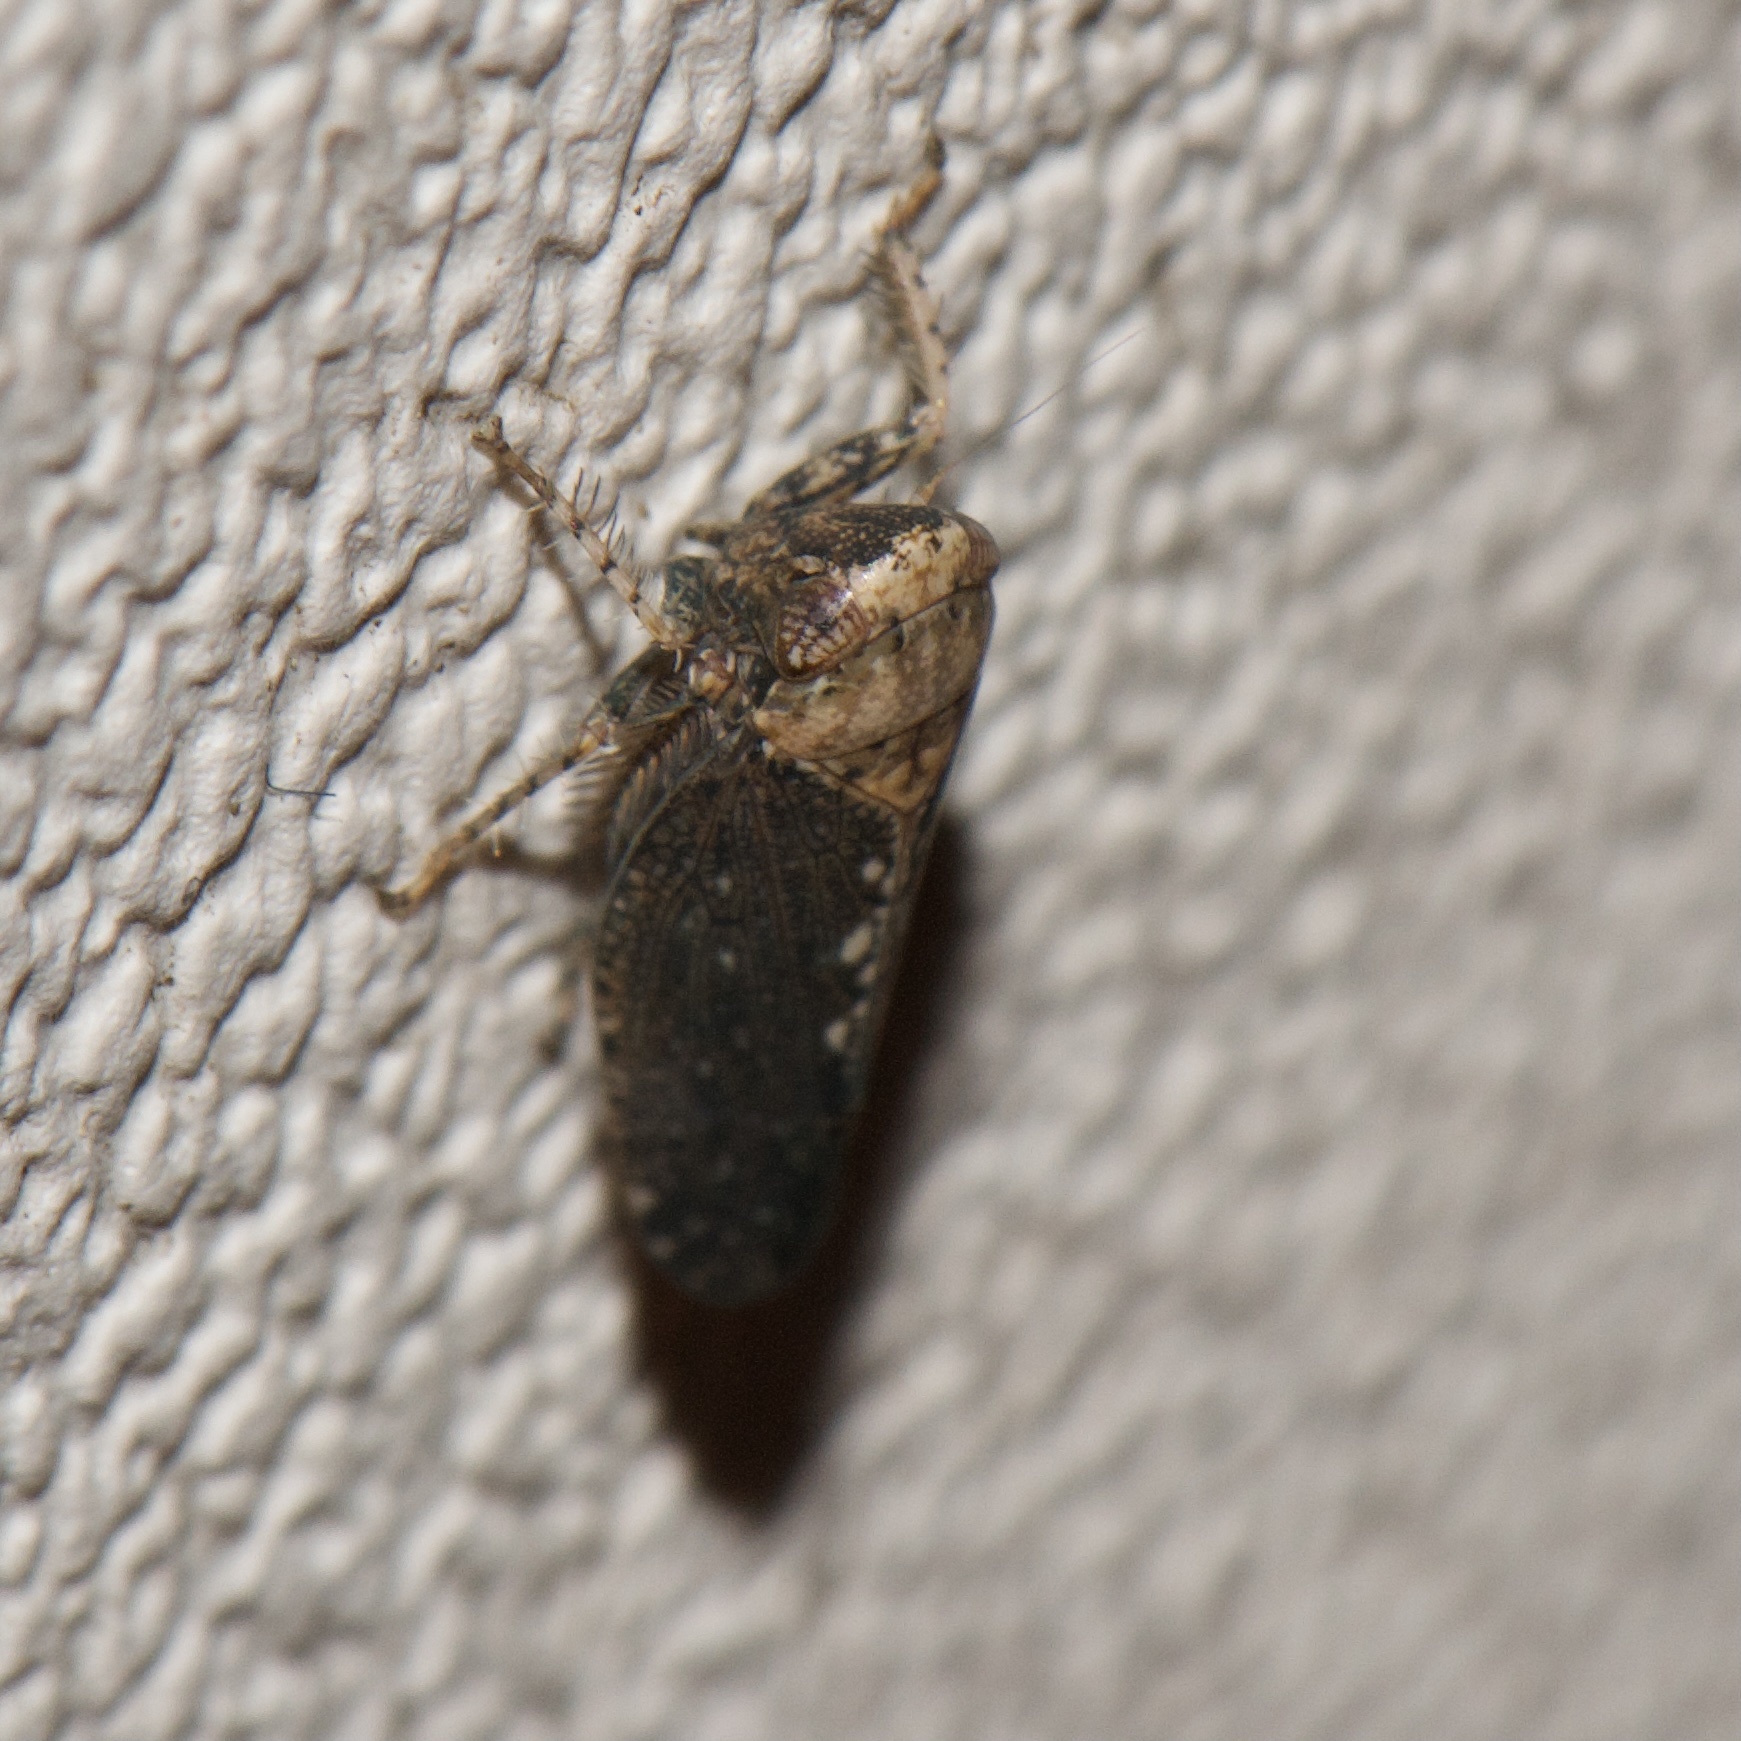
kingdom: Animalia
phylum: Arthropoda
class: Insecta
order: Hemiptera
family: Cicadellidae
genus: Excultanus
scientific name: Excultanus excultus
